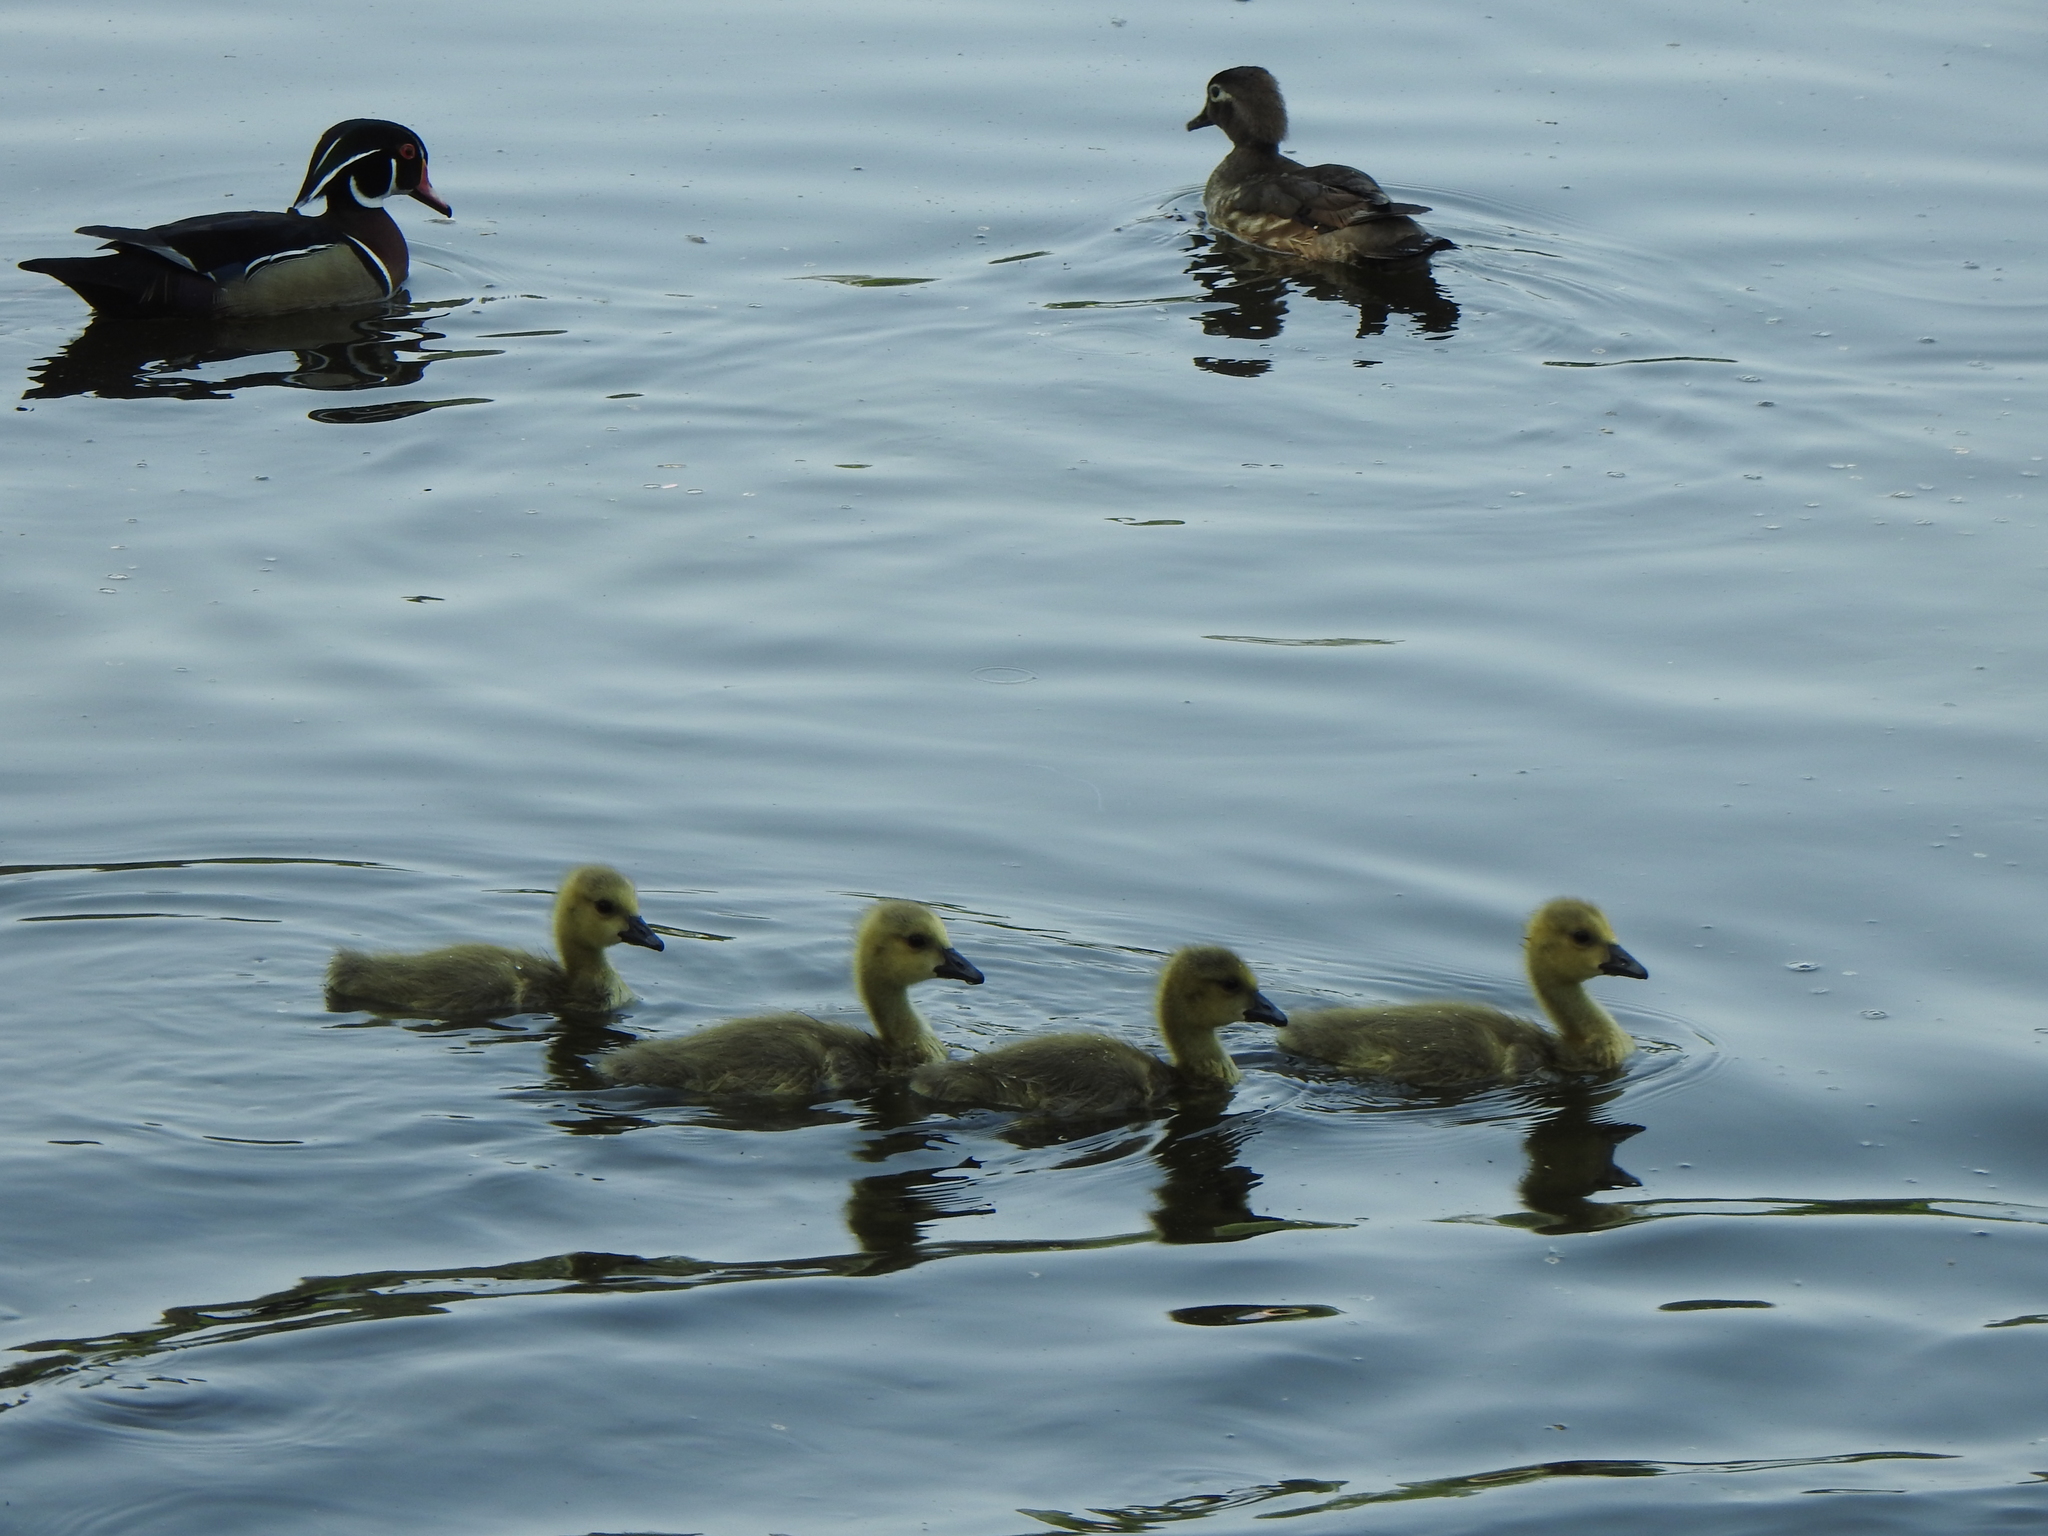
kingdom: Animalia
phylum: Chordata
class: Aves
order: Anseriformes
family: Anatidae
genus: Branta
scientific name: Branta canadensis
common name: Canada goose
